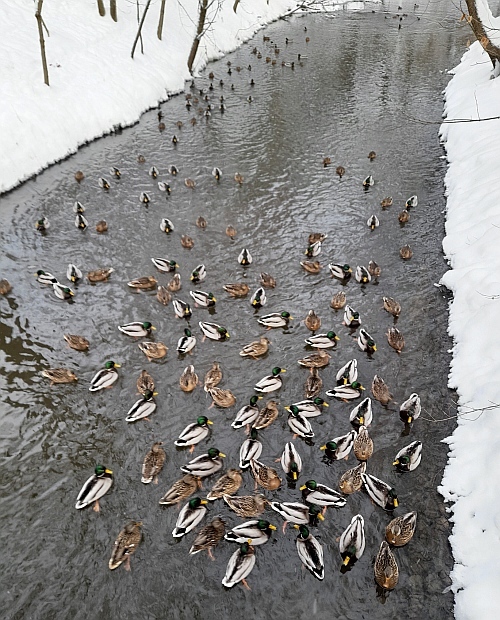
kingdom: Animalia
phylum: Chordata
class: Aves
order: Anseriformes
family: Anatidae
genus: Anas
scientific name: Anas platyrhynchos
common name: Mallard
